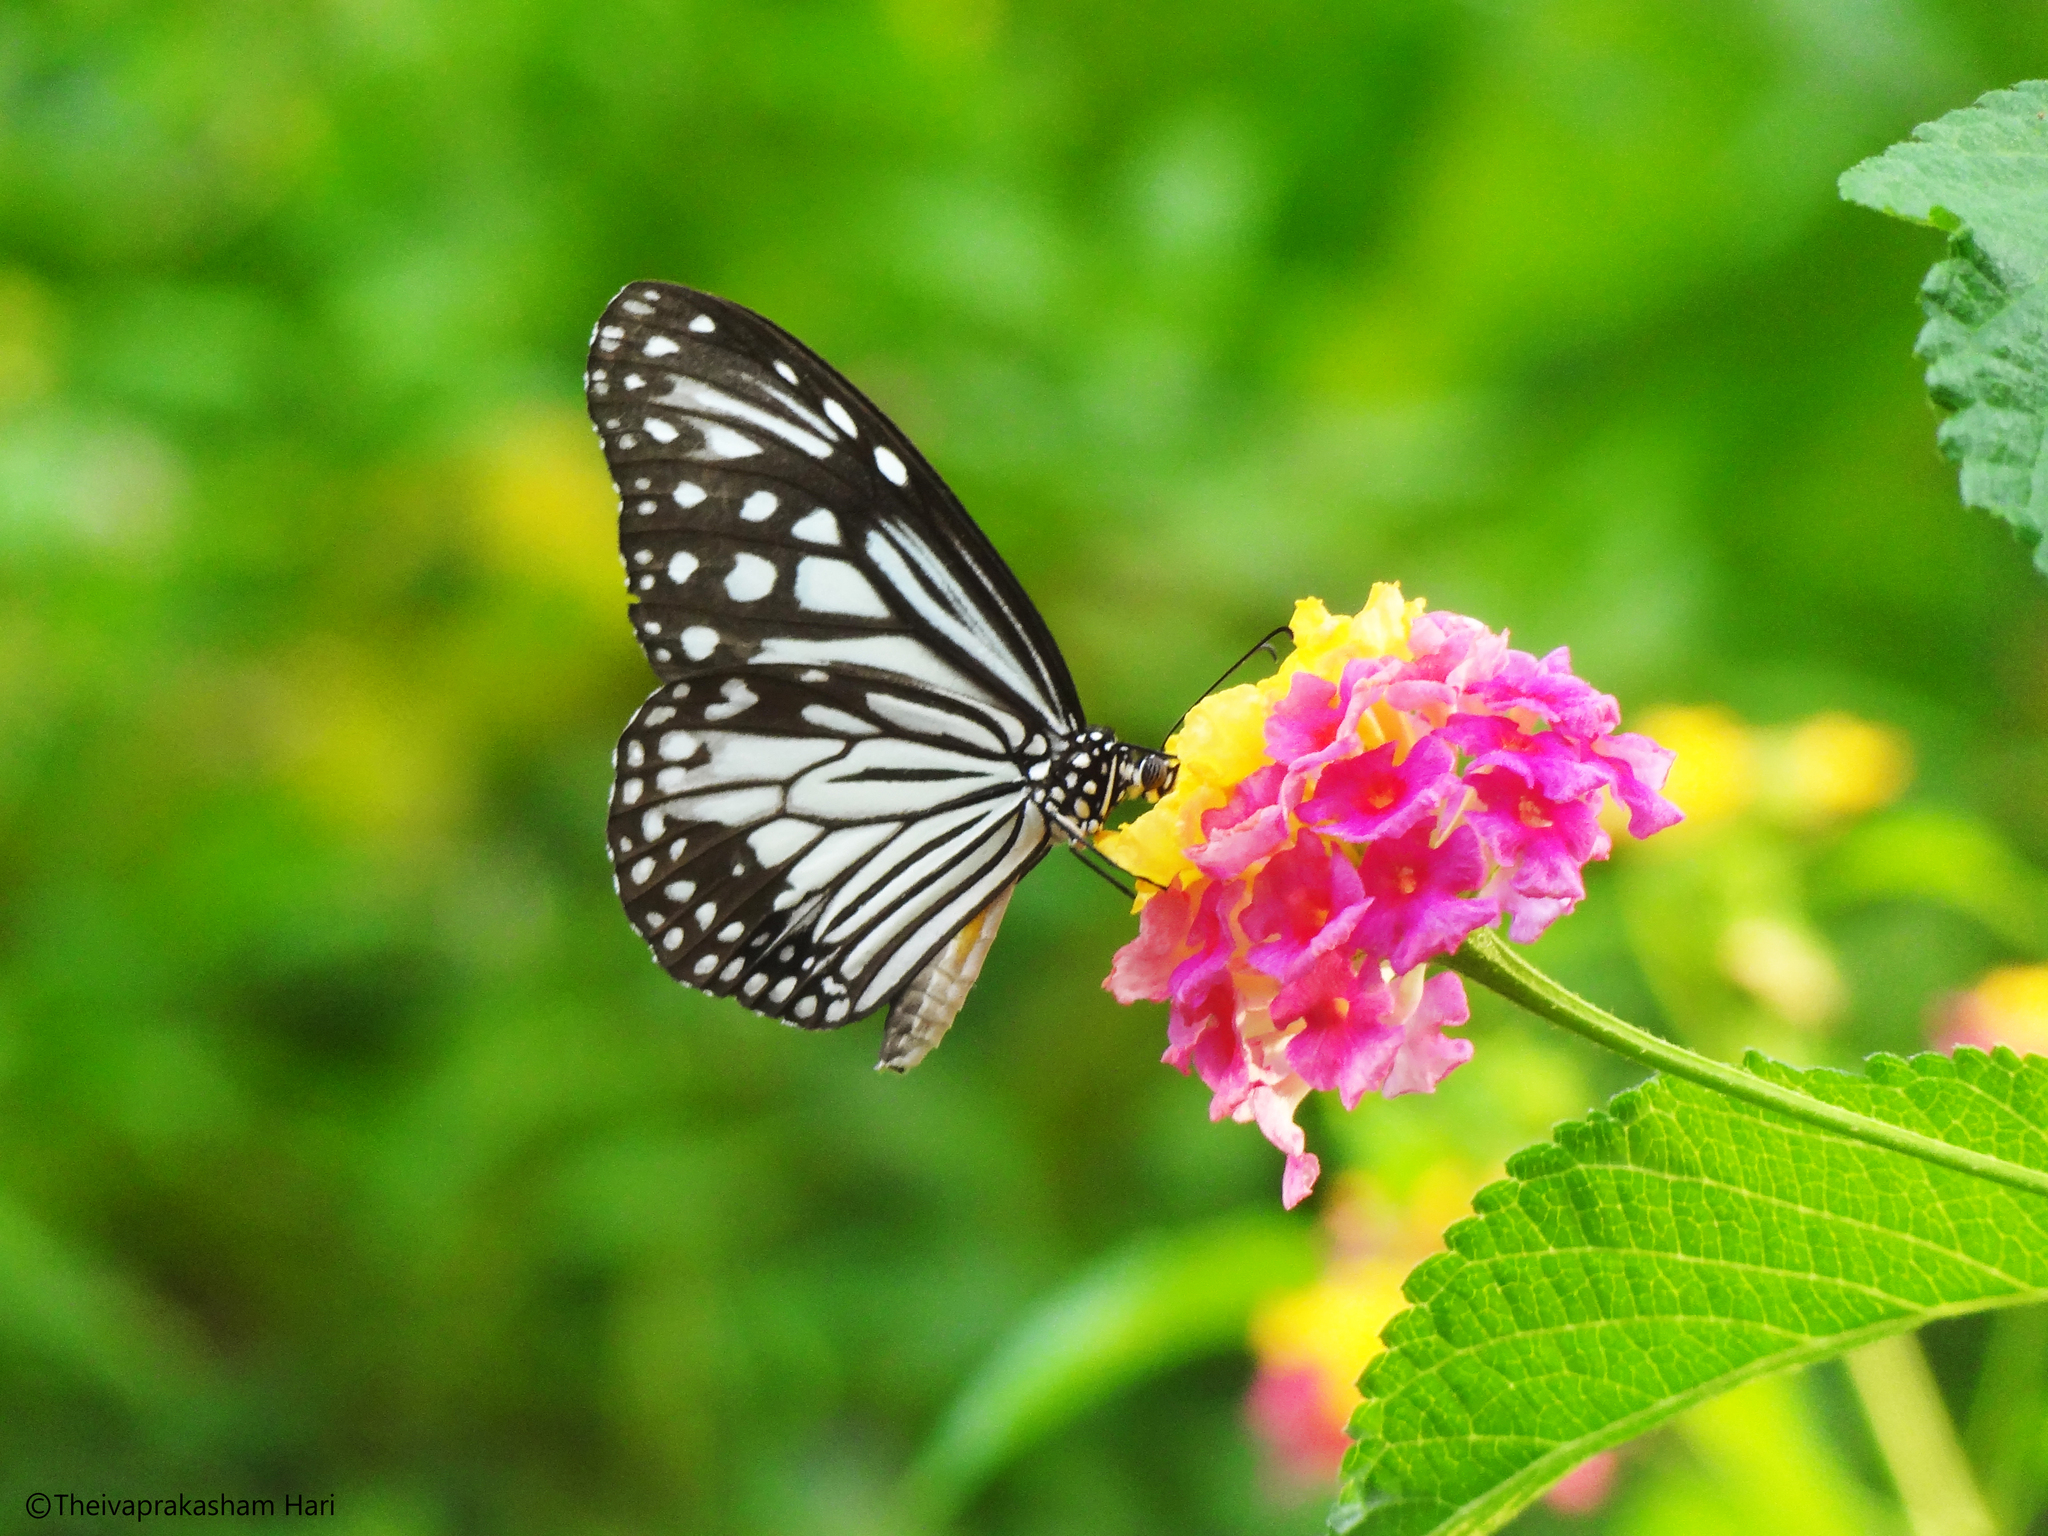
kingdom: Animalia
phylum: Arthropoda
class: Insecta
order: Lepidoptera
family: Nymphalidae
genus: Parantica
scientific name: Parantica aglea
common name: Glassy tiger
